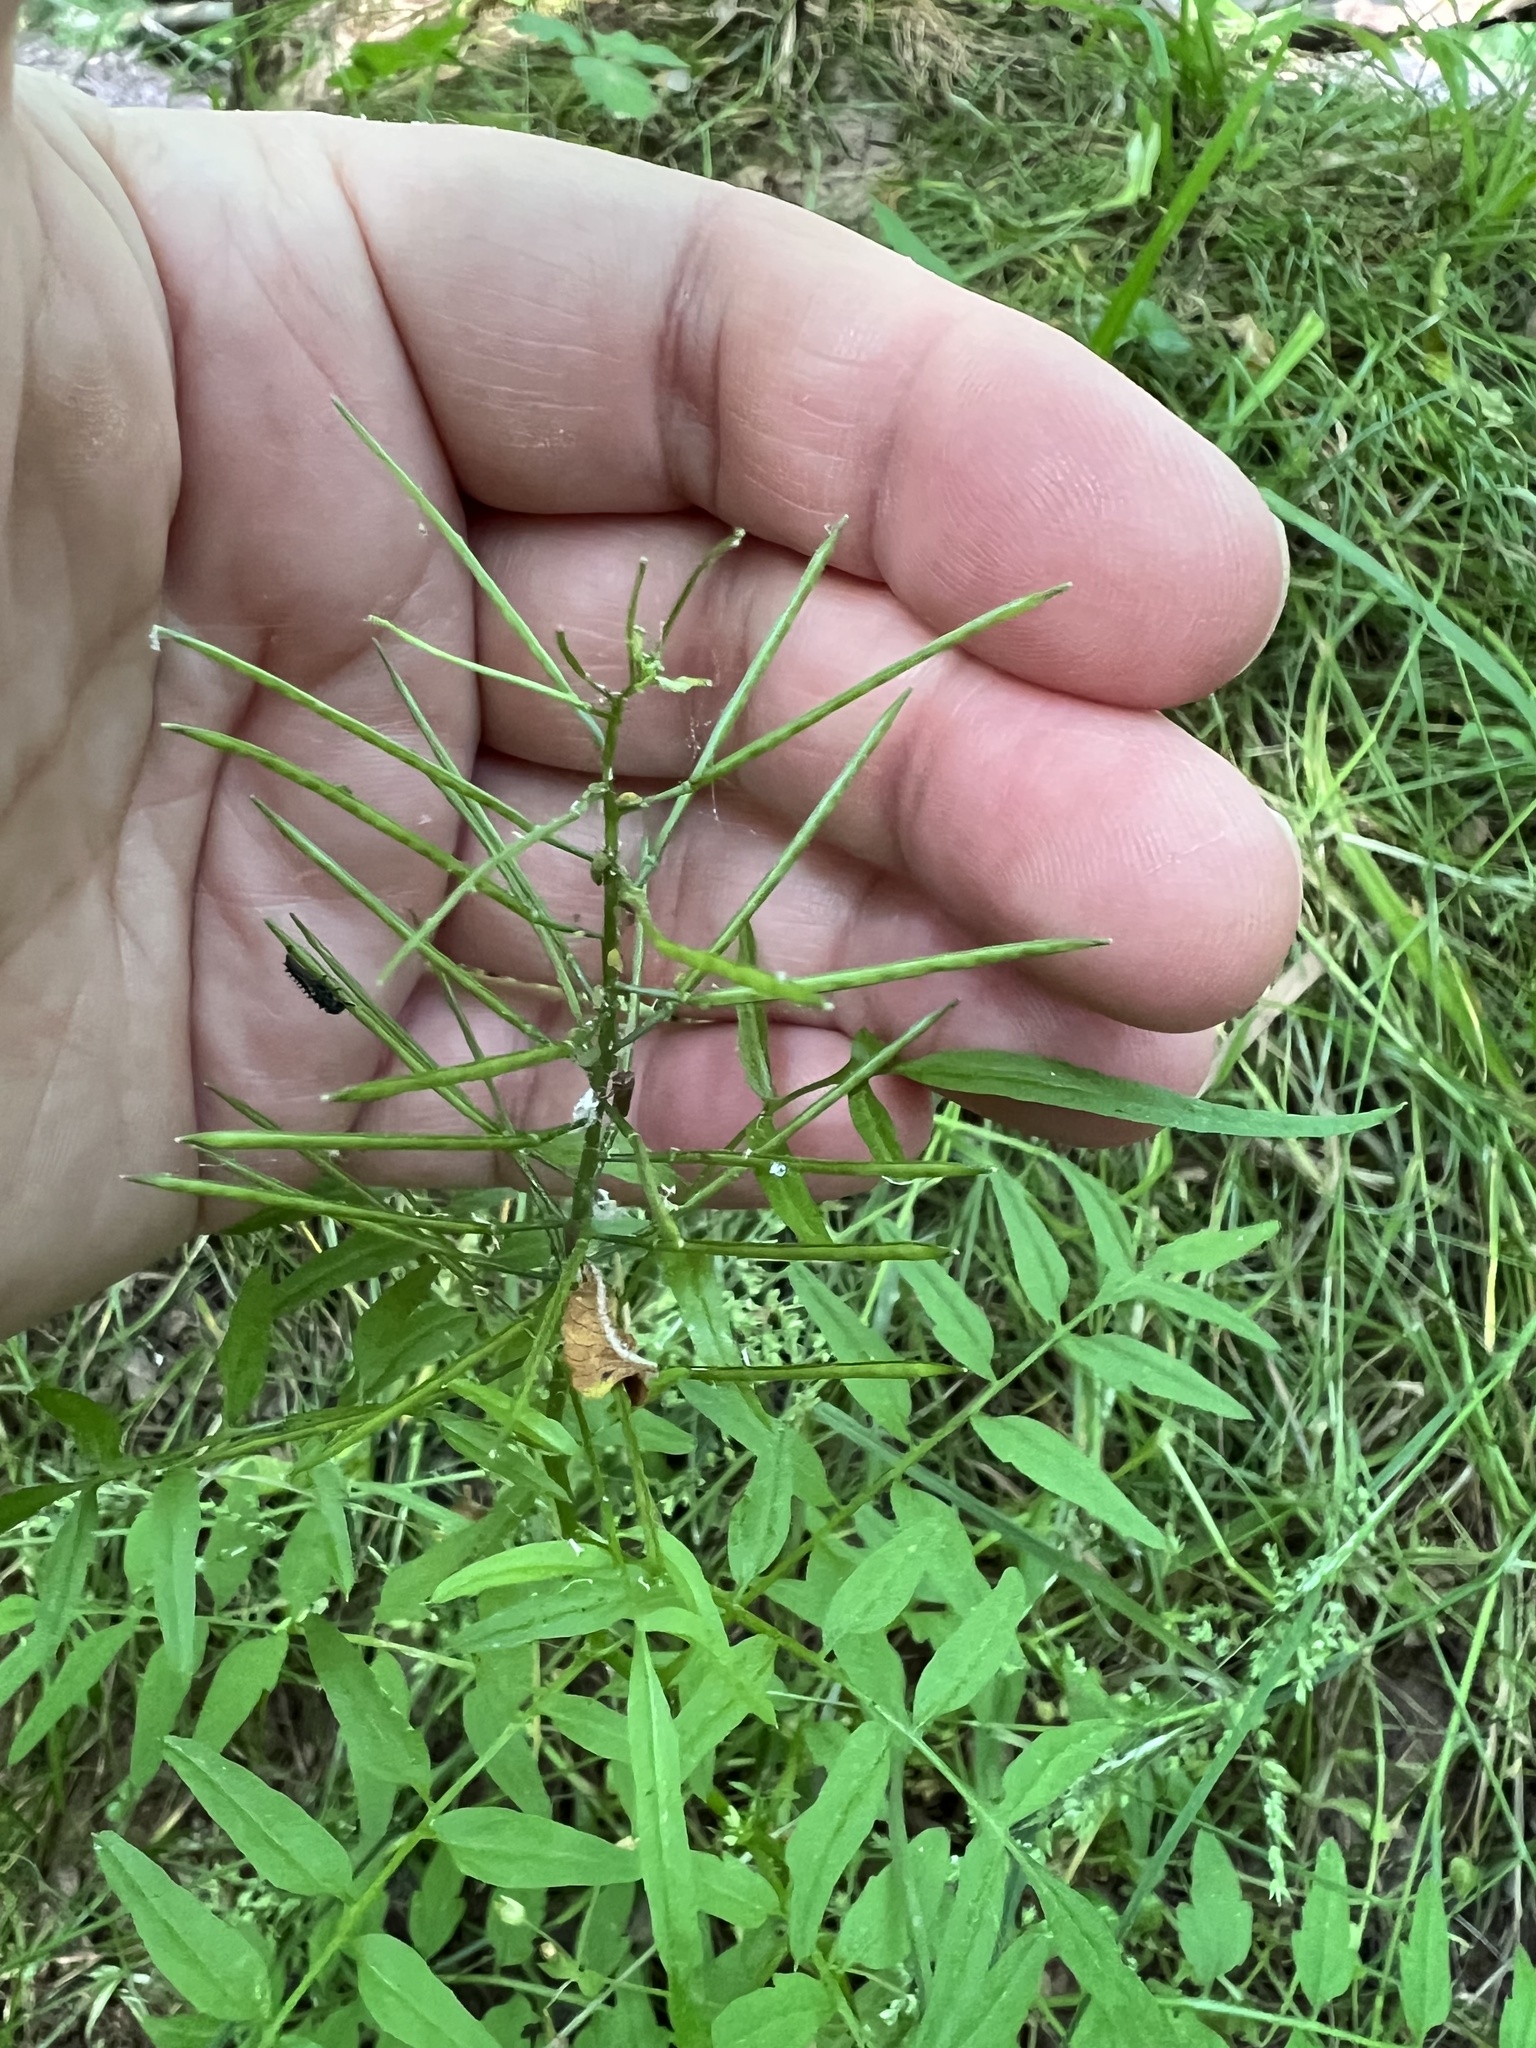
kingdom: Plantae
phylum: Tracheophyta
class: Magnoliopsida
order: Brassicales
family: Brassicaceae
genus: Cardamine
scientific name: Cardamine impatiens
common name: Narrow-leaved bitter-cress
